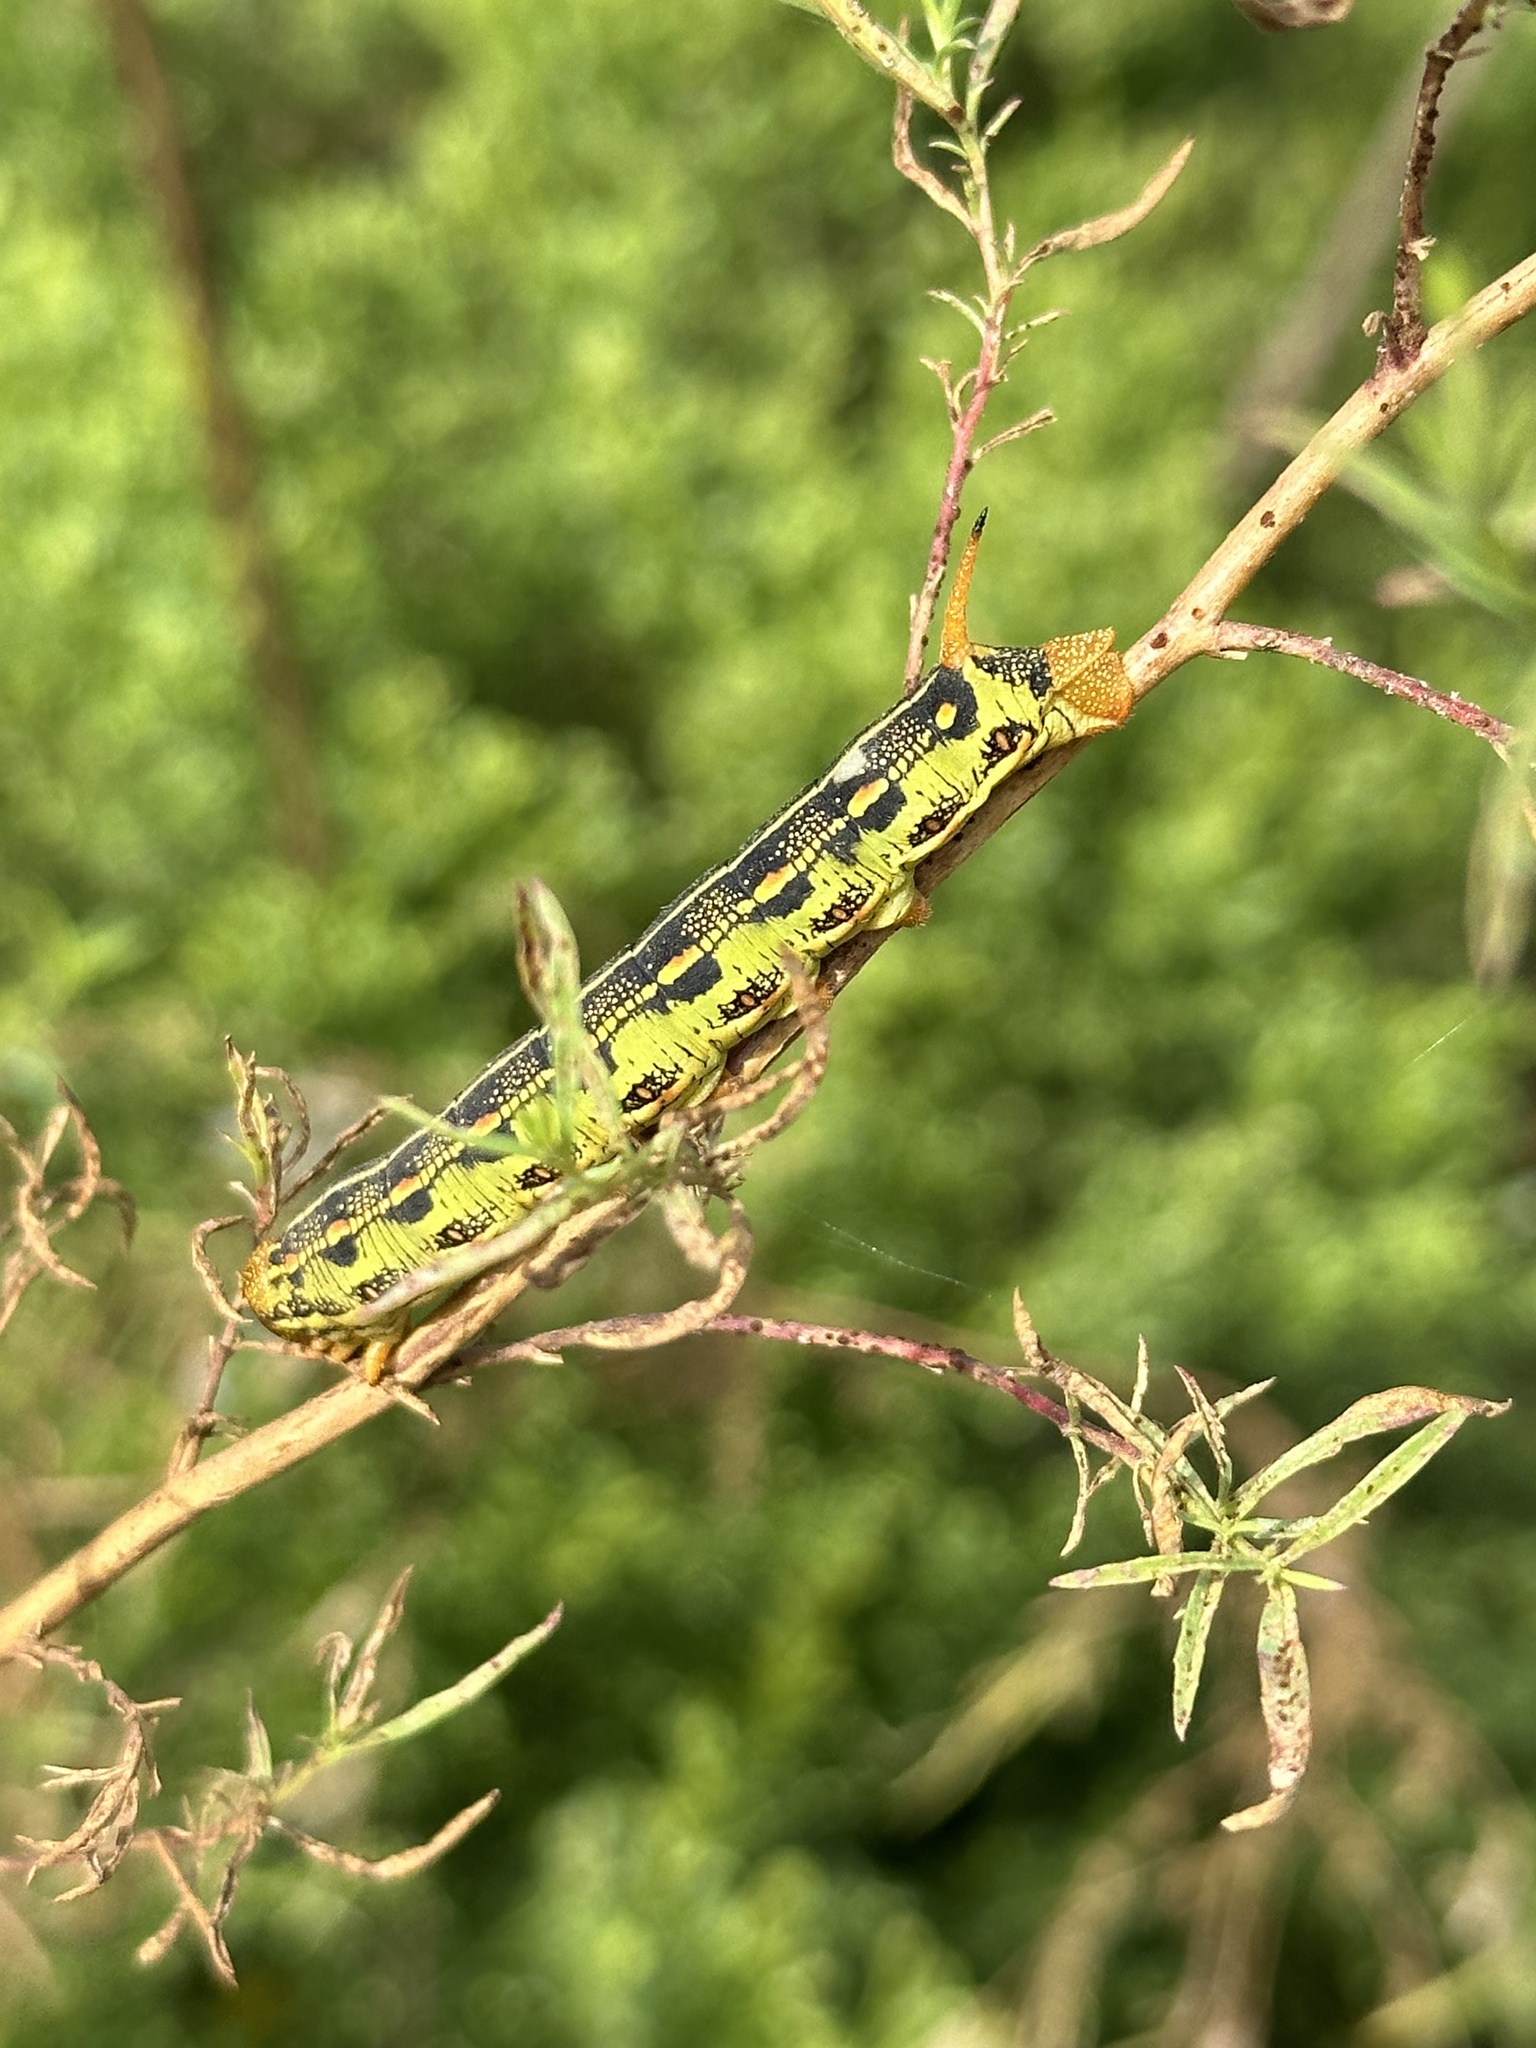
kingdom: Animalia
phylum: Arthropoda
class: Insecta
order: Lepidoptera
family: Sphingidae
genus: Hyles
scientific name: Hyles lineata
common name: White-lined sphinx
